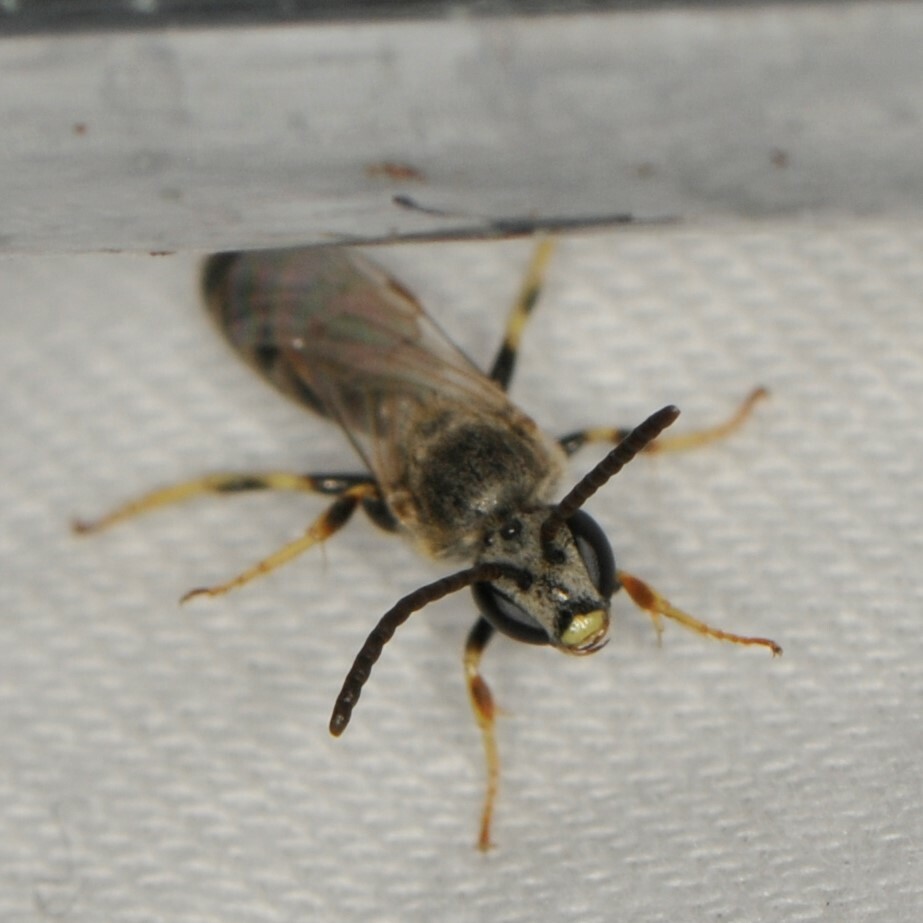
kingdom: Animalia
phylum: Arthropoda
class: Insecta
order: Hymenoptera
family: Halictidae
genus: Lasioglossum
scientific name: Lasioglossum
